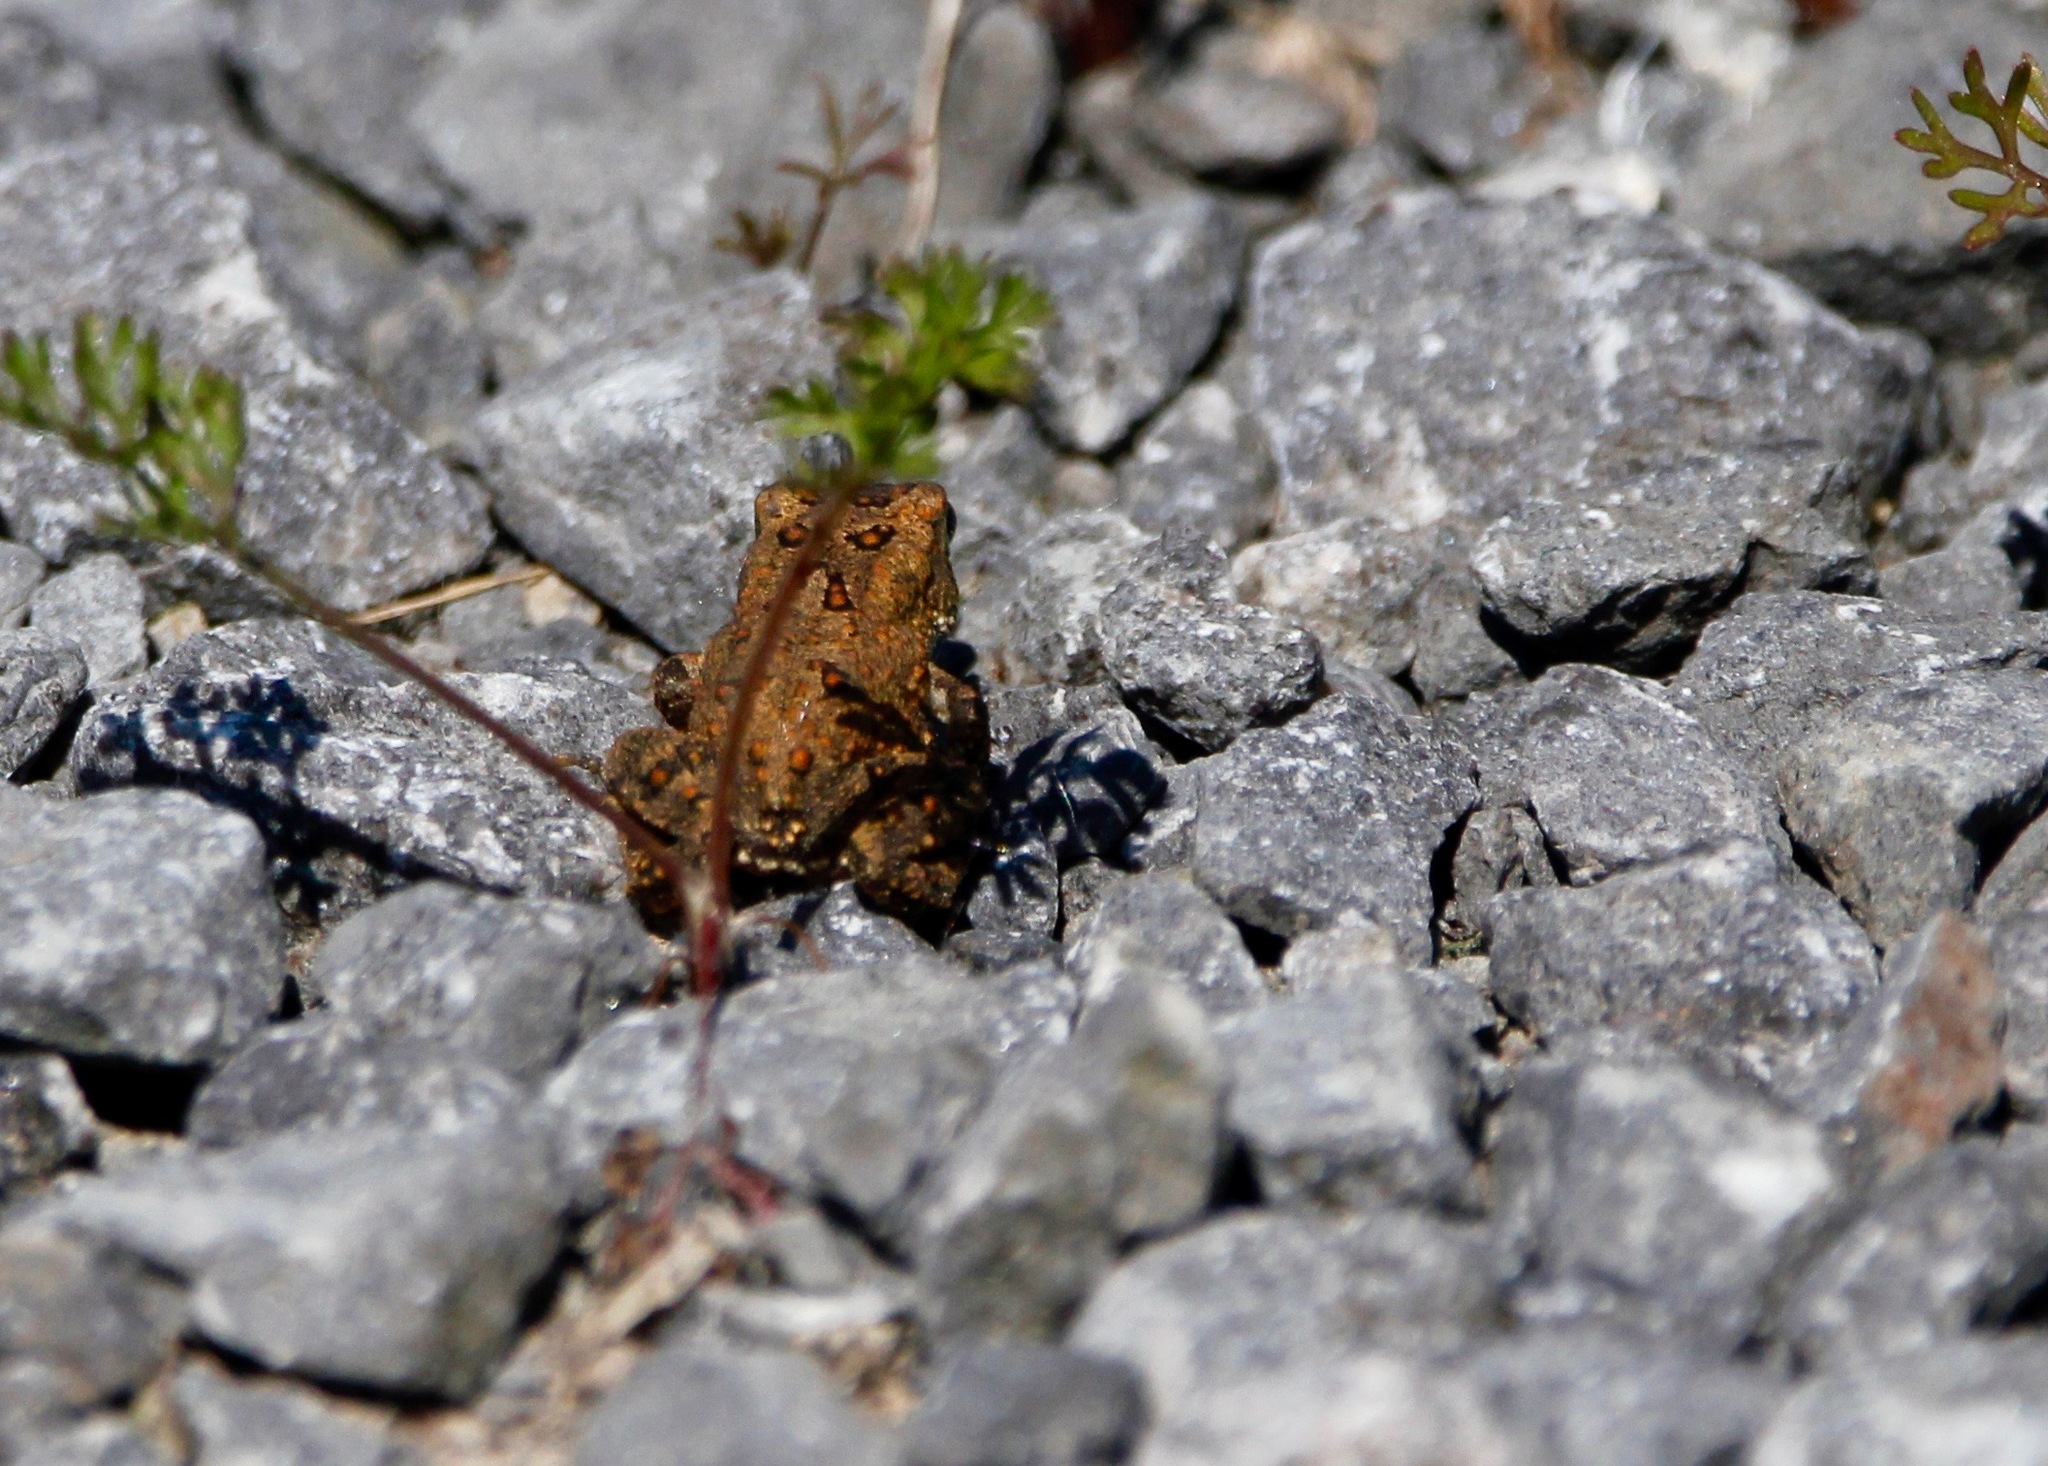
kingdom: Animalia
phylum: Chordata
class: Amphibia
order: Anura
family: Bufonidae
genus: Anaxyrus
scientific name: Anaxyrus americanus
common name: American toad
